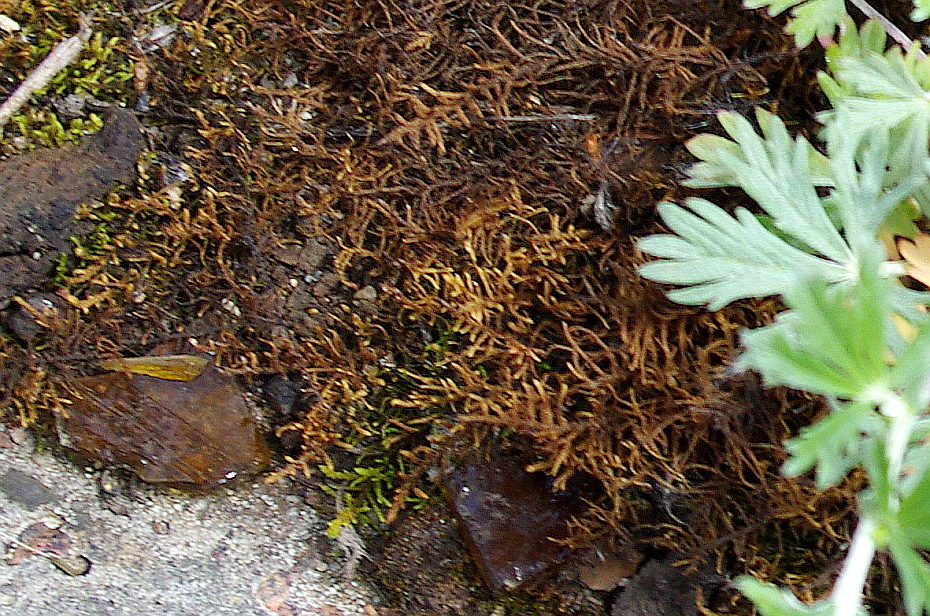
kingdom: Plantae
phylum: Bryophyta
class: Bryopsida
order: Hypnales
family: Thuidiaceae
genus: Abietinella
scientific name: Abietinella abietina
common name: Wiry fern moss
